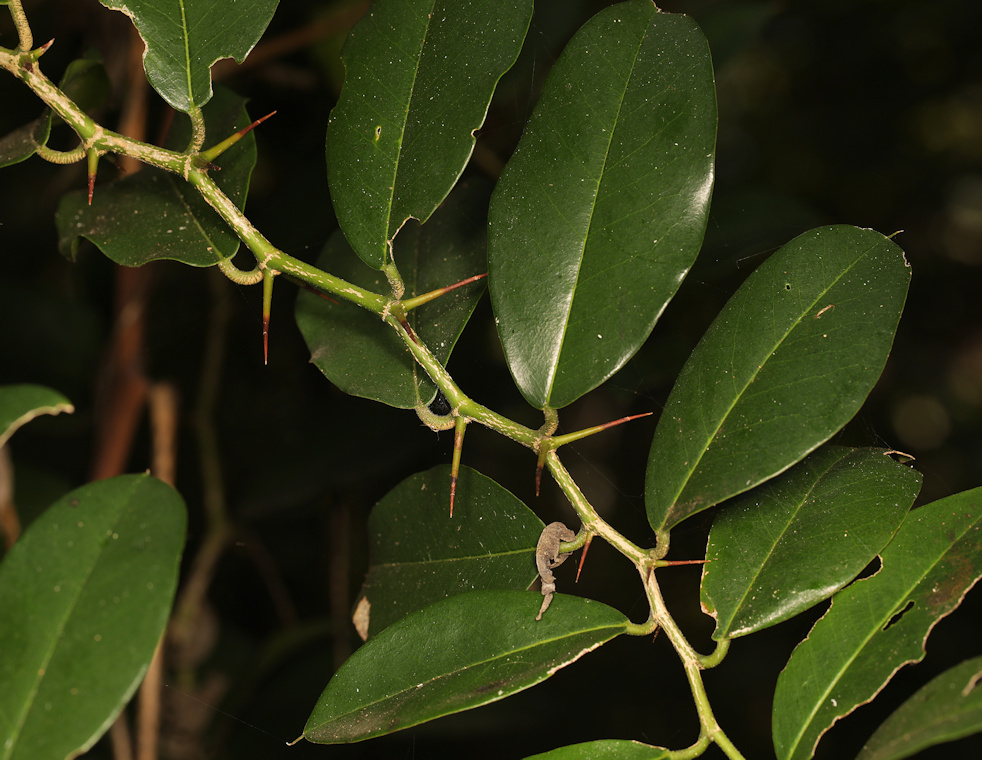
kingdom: Plantae
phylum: Tracheophyta
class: Magnoliopsida
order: Rosales
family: Cannabaceae
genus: Chaetachme
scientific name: Chaetachme aristata
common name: Thorny elm
